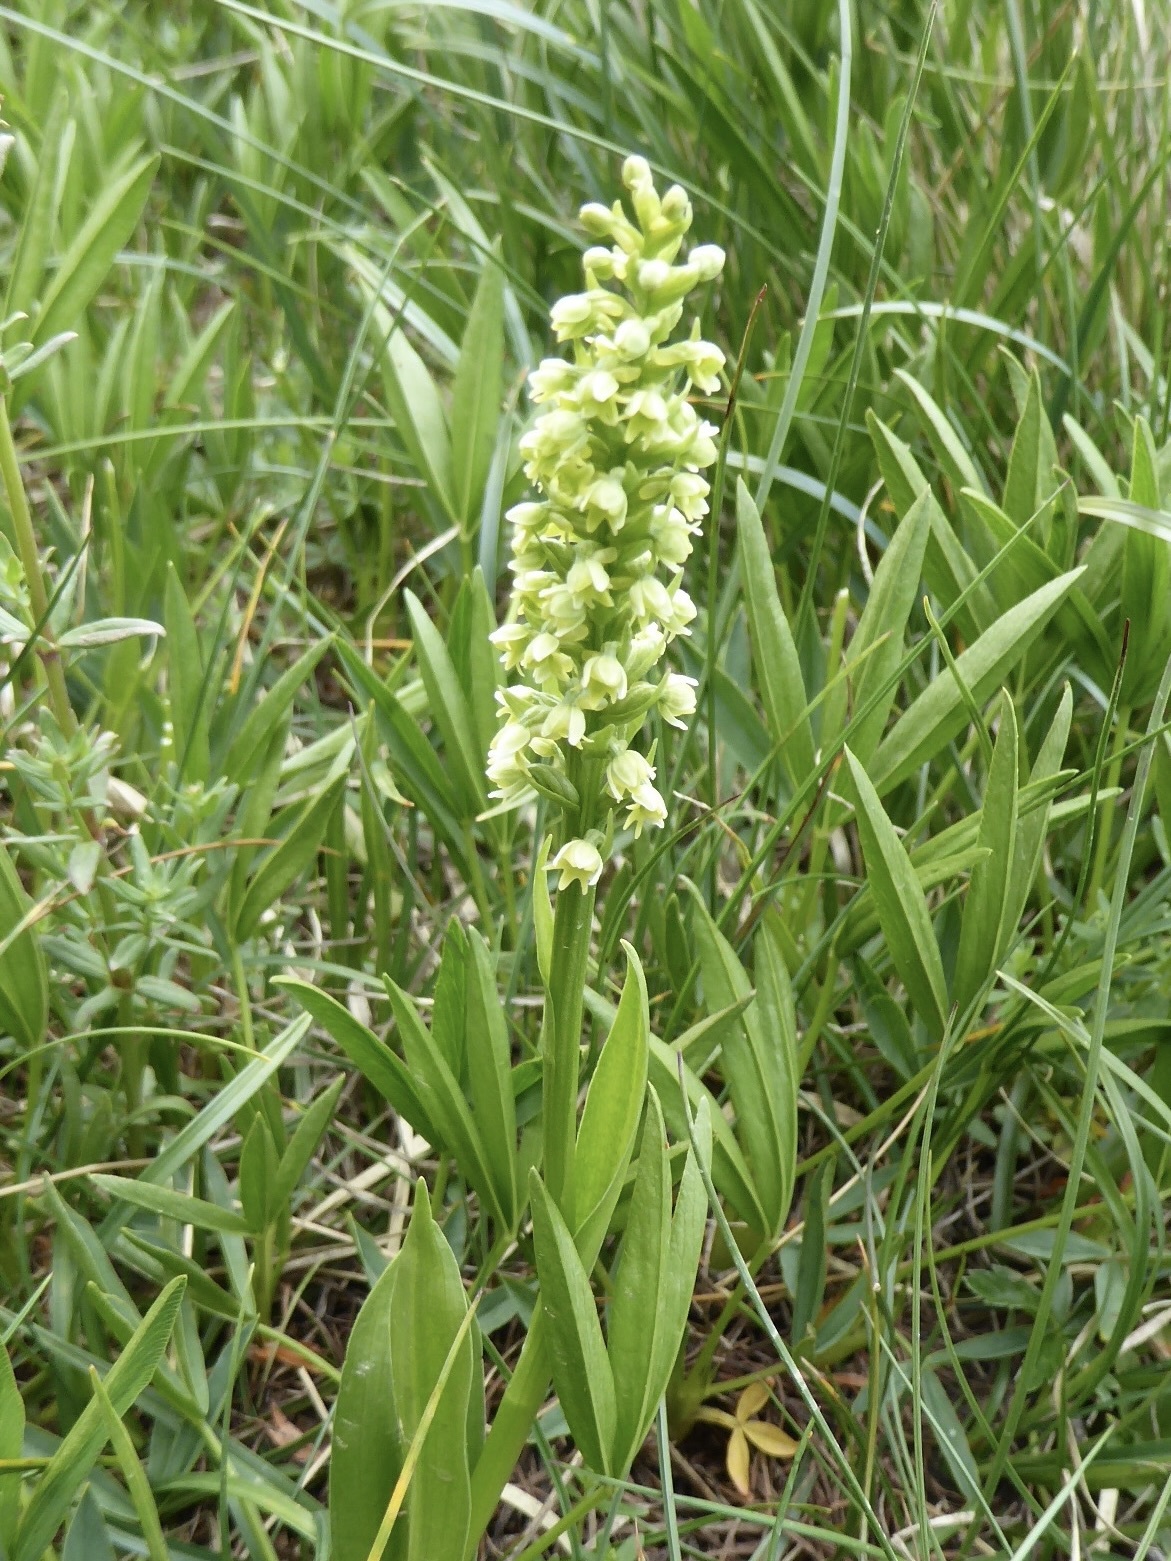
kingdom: Plantae
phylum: Tracheophyta
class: Liliopsida
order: Asparagales
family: Orchidaceae
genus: Pseudorchis
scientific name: Pseudorchis albida
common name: Small-white orchid
